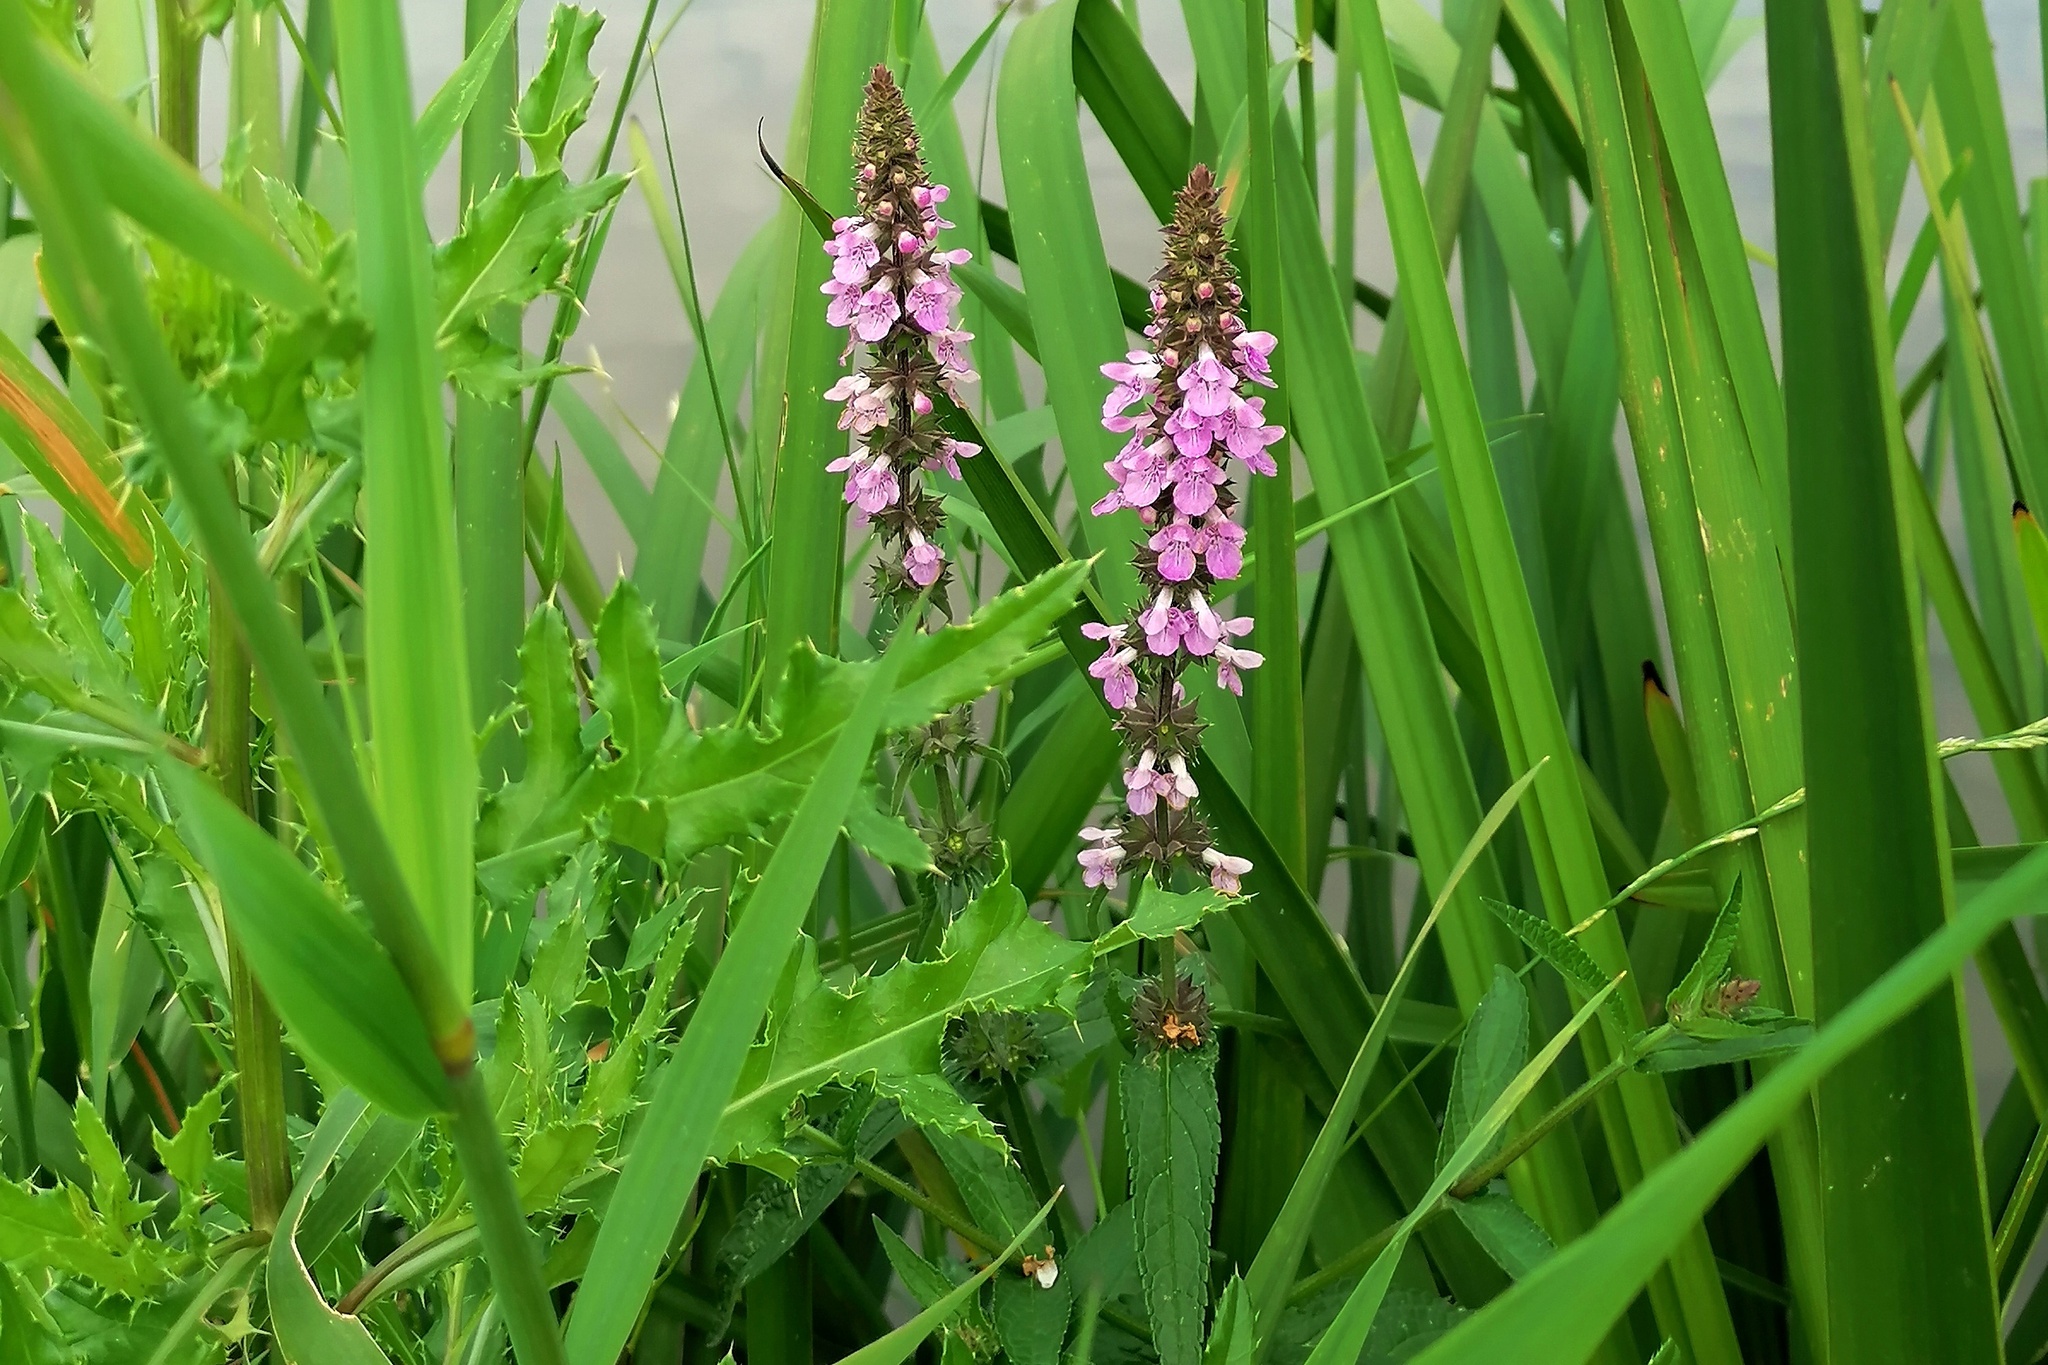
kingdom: Plantae
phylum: Tracheophyta
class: Magnoliopsida
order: Lamiales
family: Lamiaceae
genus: Stachys
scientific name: Stachys palustris
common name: Marsh woundwort
